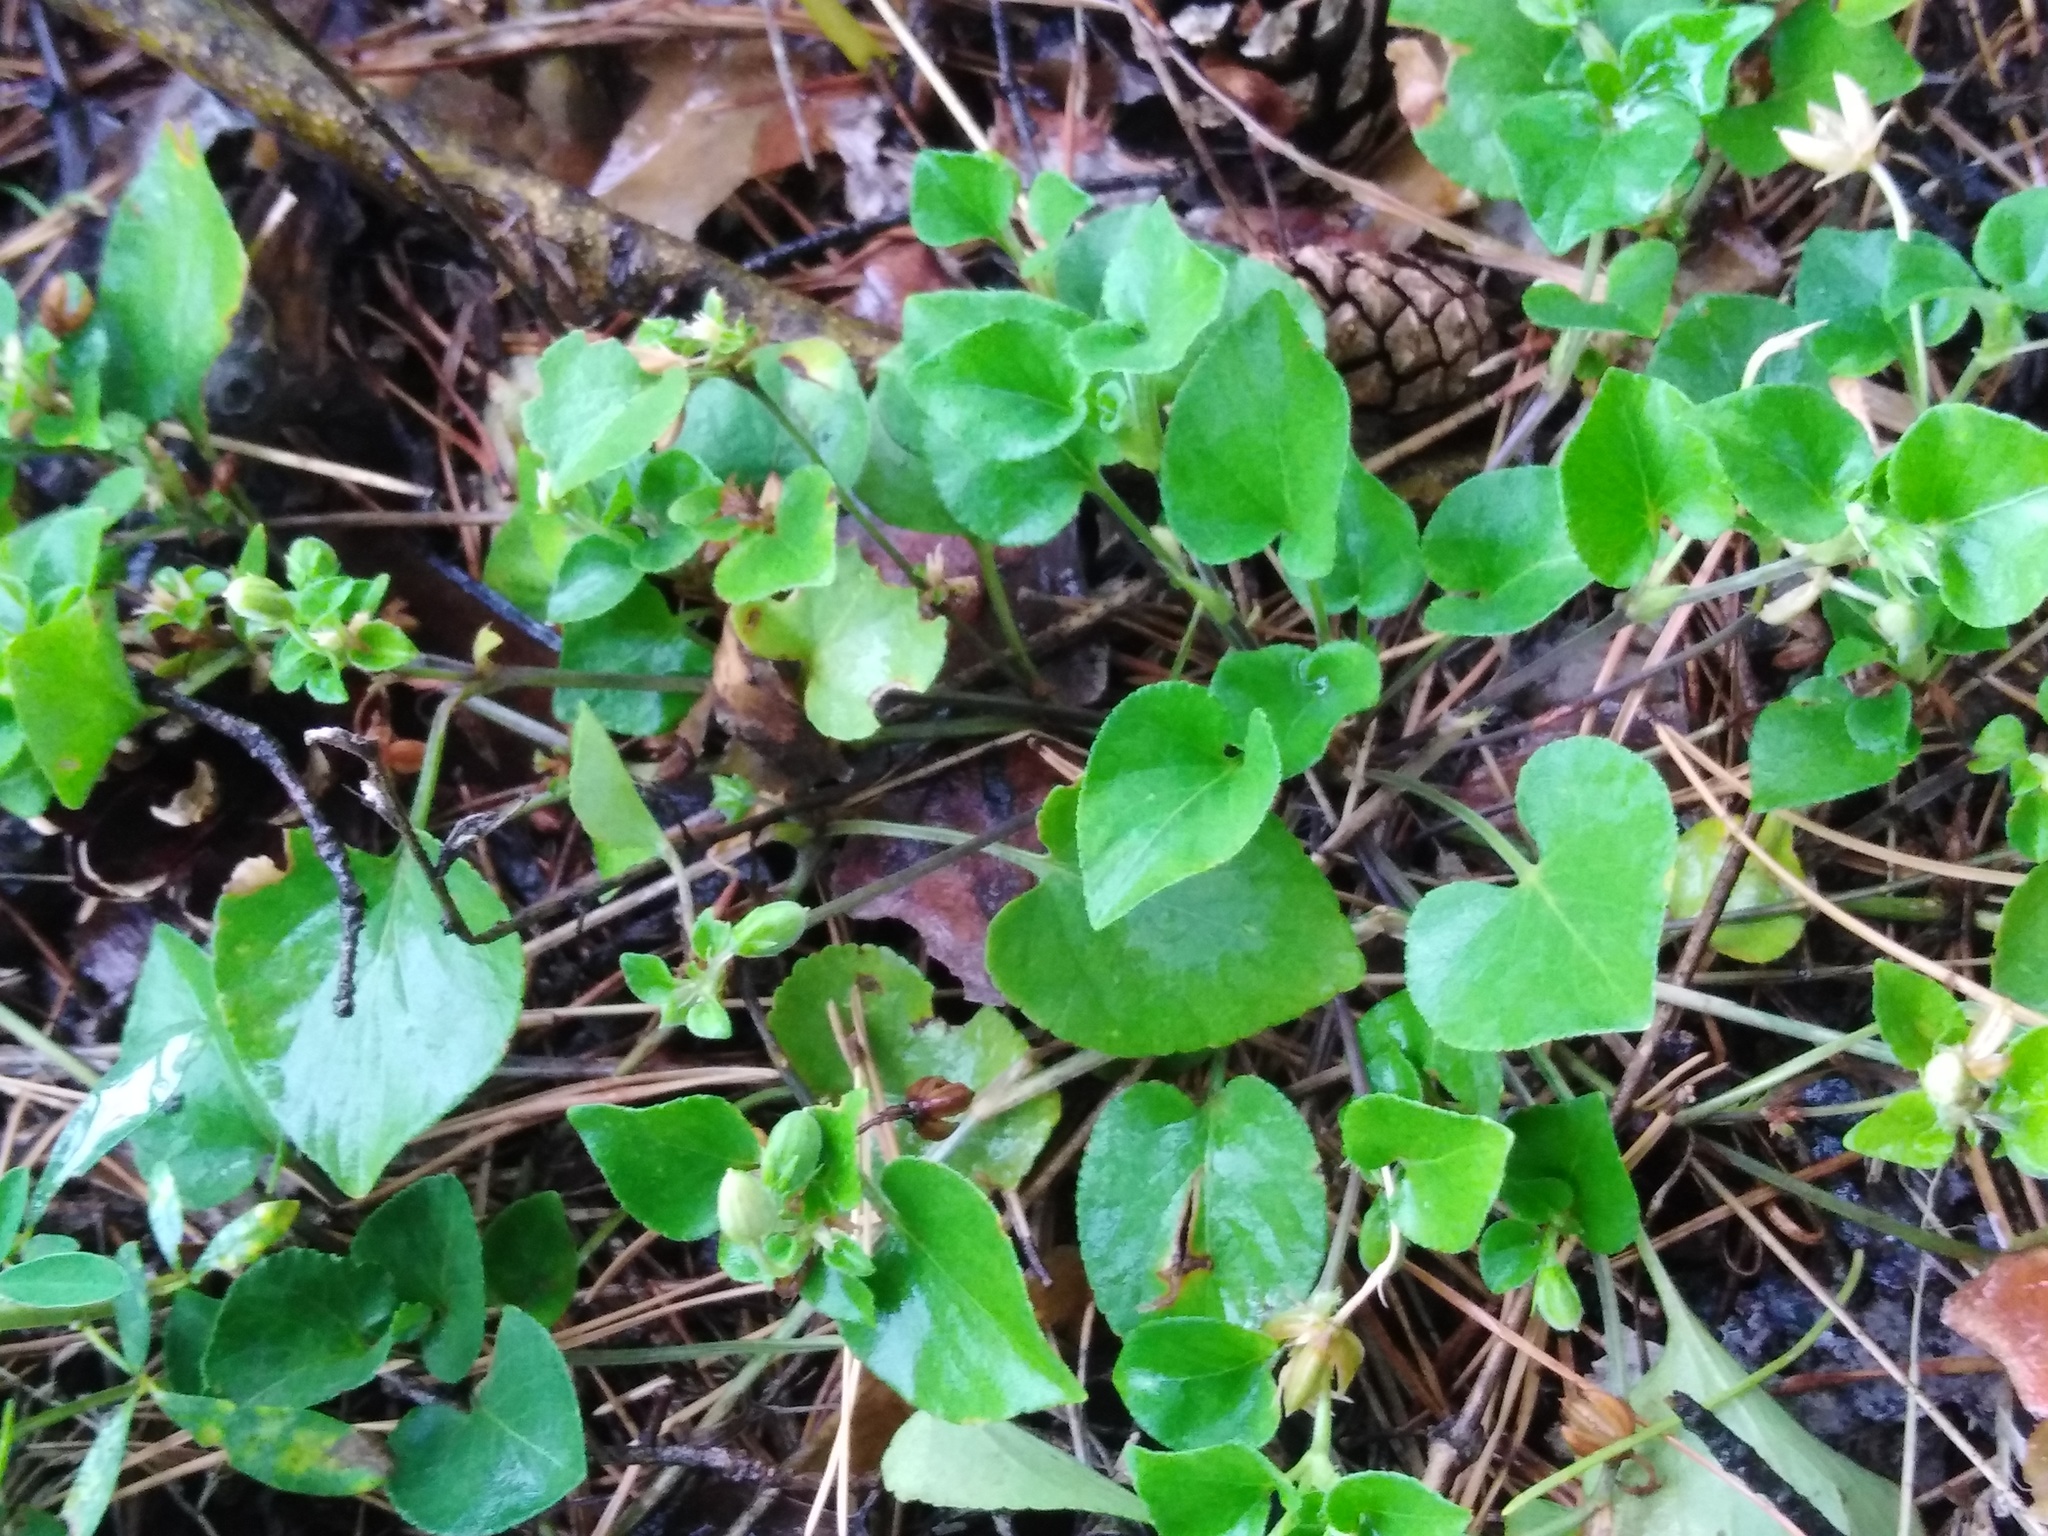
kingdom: Plantae
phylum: Tracheophyta
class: Magnoliopsida
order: Malpighiales
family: Violaceae
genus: Viola
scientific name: Viola rupestris
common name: Teesdale violet
